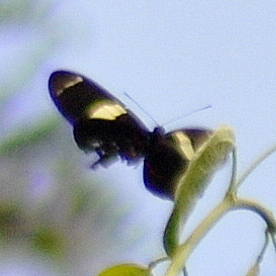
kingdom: Animalia
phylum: Arthropoda
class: Insecta
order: Lepidoptera
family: Nymphalidae
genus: Heliconius
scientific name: Heliconius sara
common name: Sara longwing
